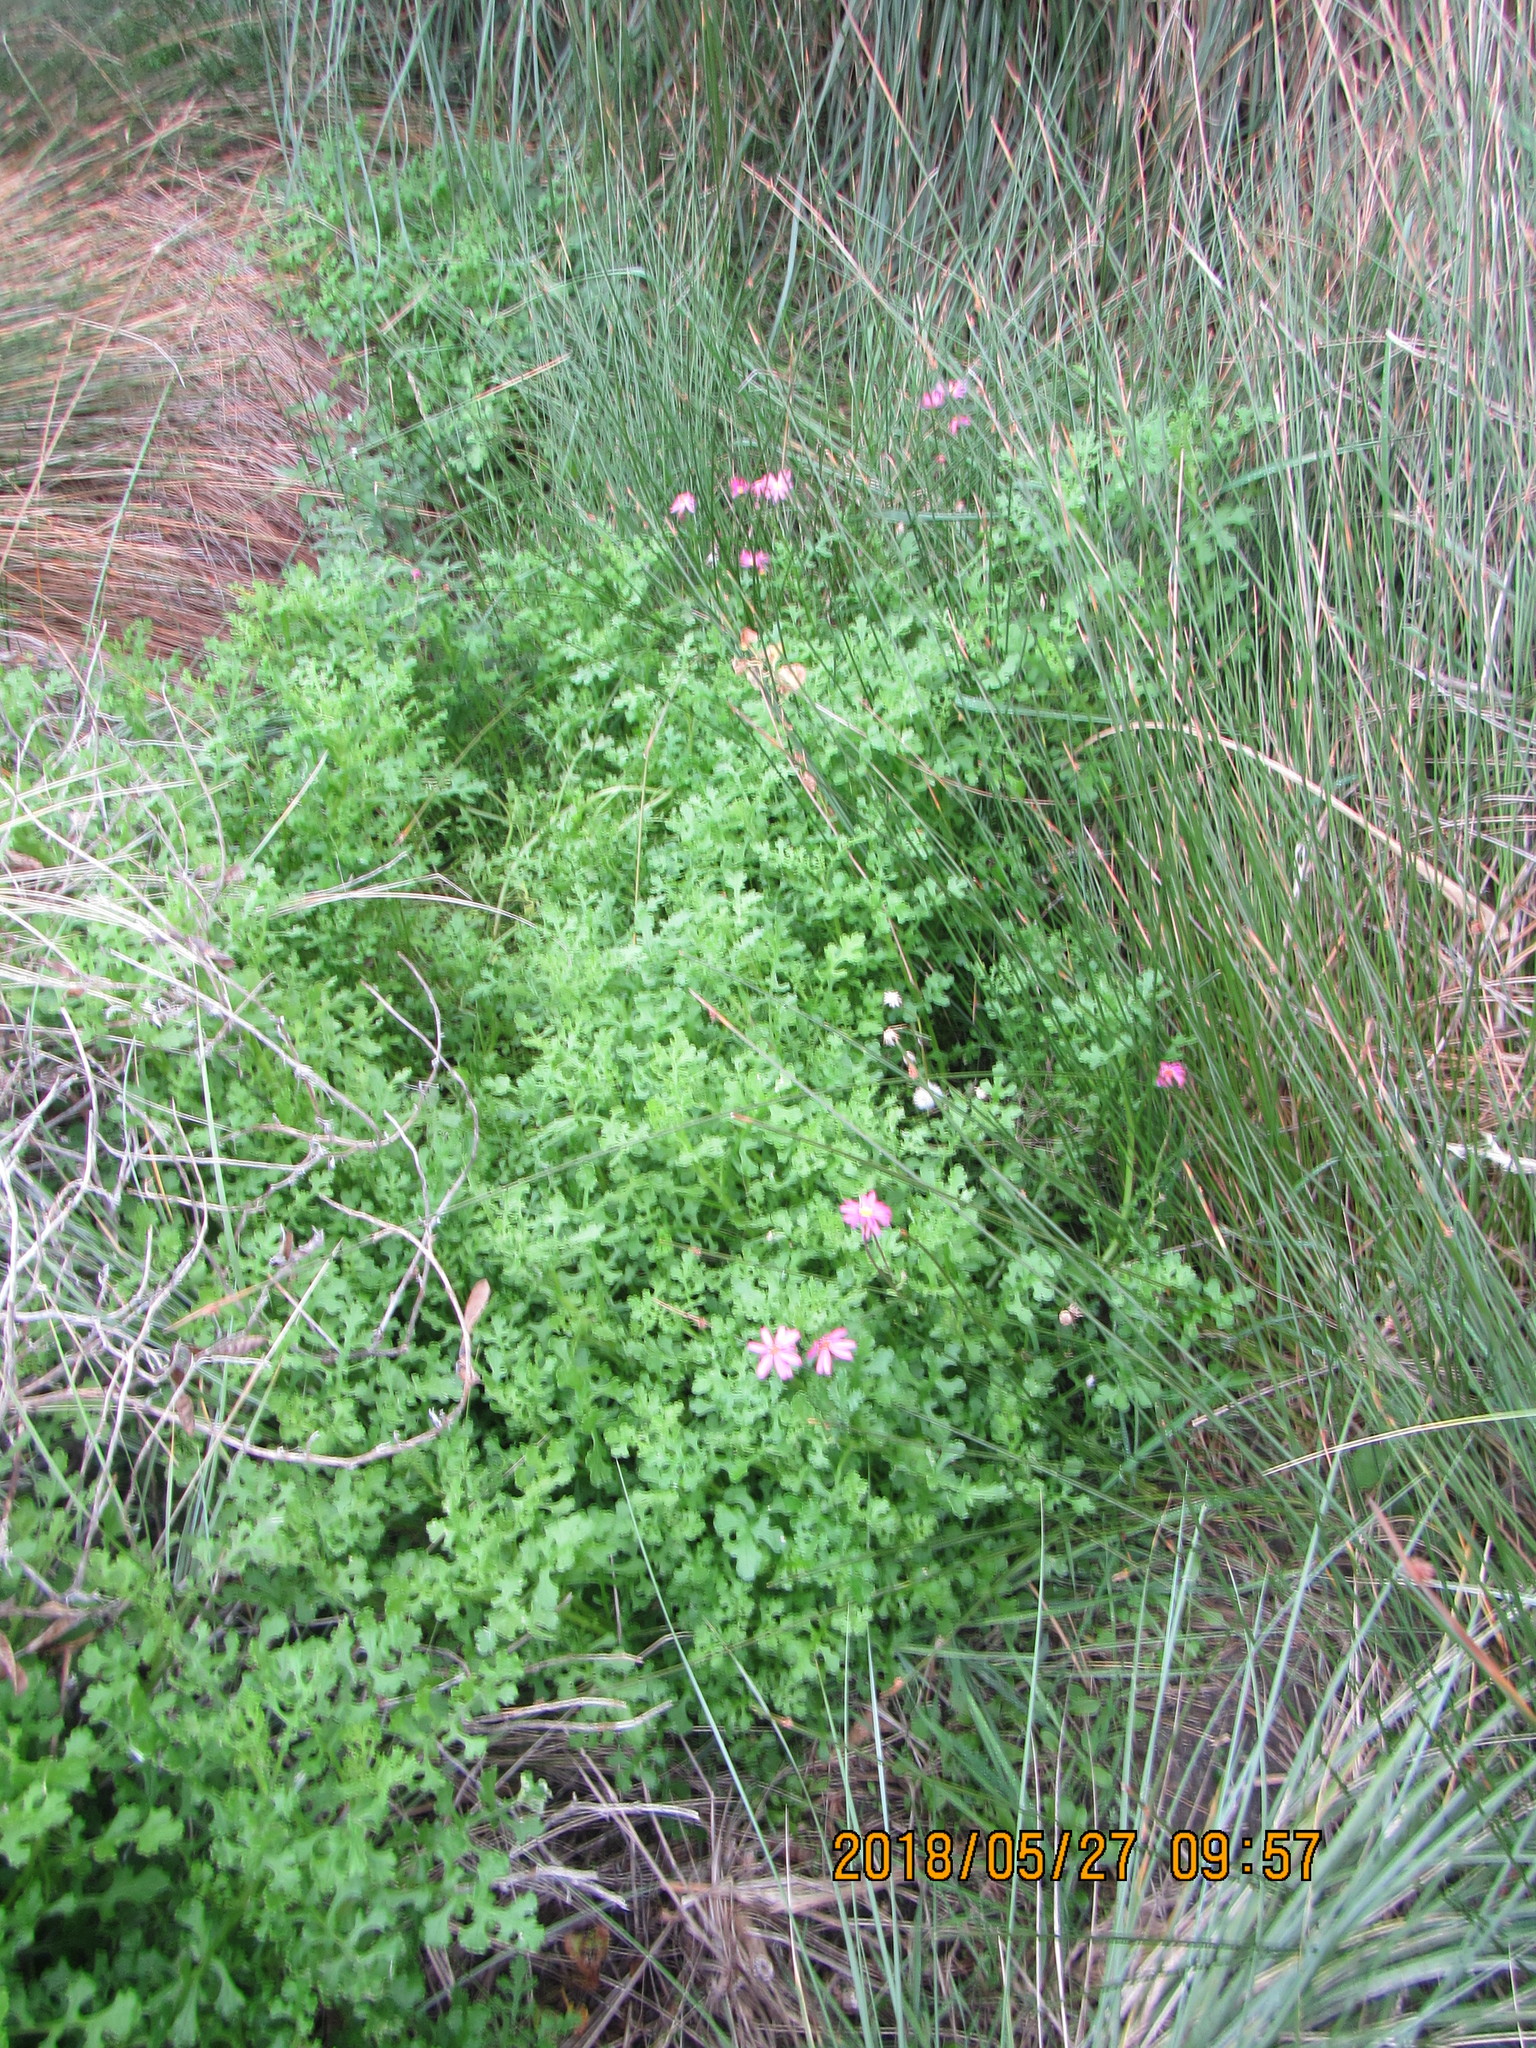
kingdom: Plantae
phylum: Tracheophyta
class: Magnoliopsida
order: Asterales
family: Asteraceae
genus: Senecio
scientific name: Senecio elegans
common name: Purple groundsel
